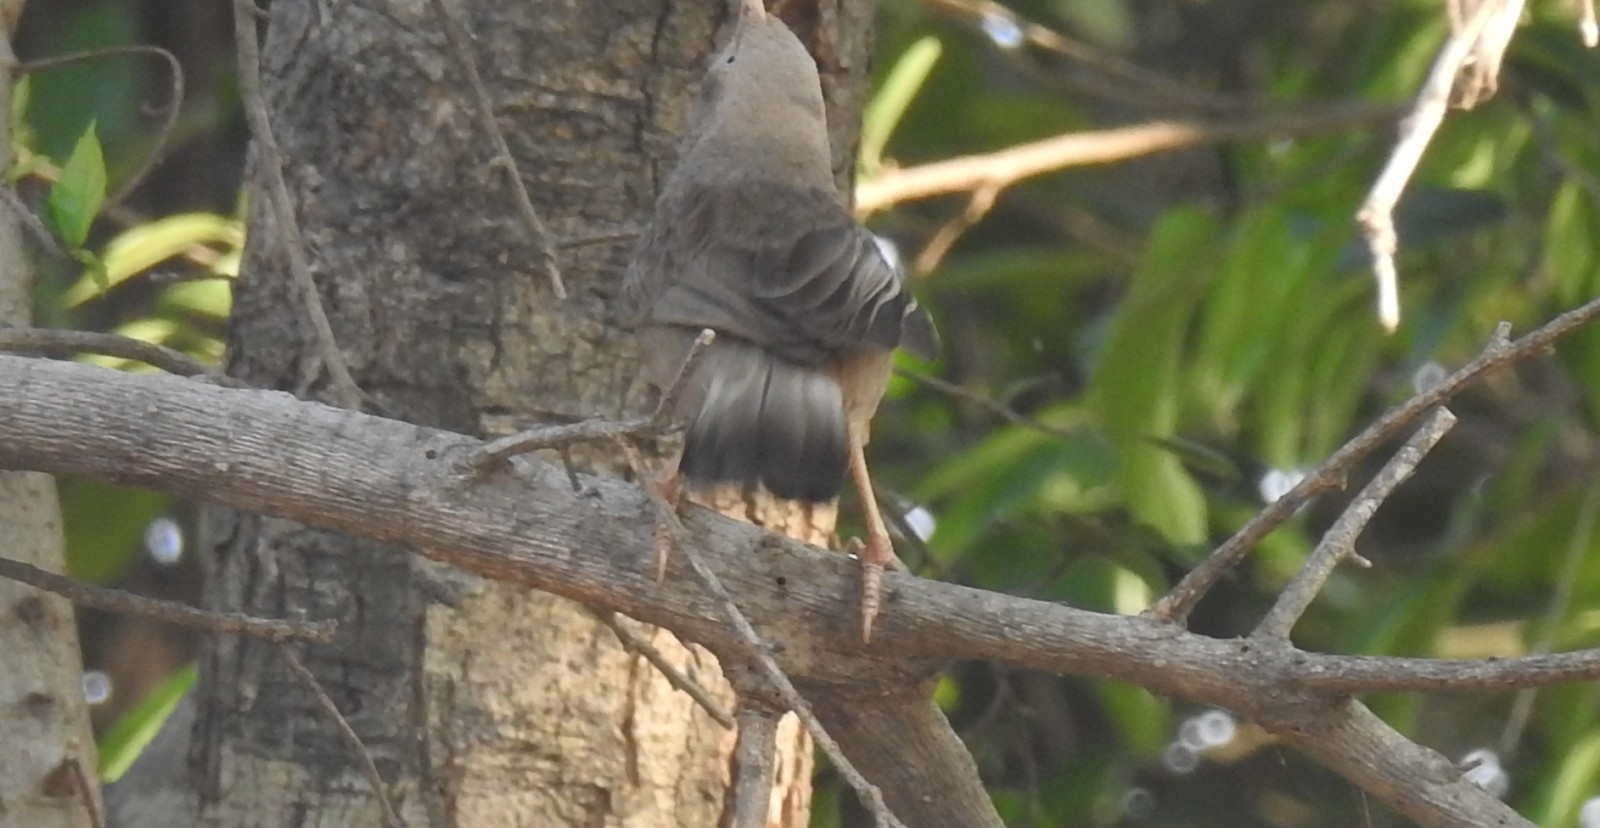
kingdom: Animalia
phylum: Chordata
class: Aves
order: Passeriformes
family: Leiothrichidae
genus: Turdoides
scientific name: Turdoides affinis
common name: Yellow-billed babbler
